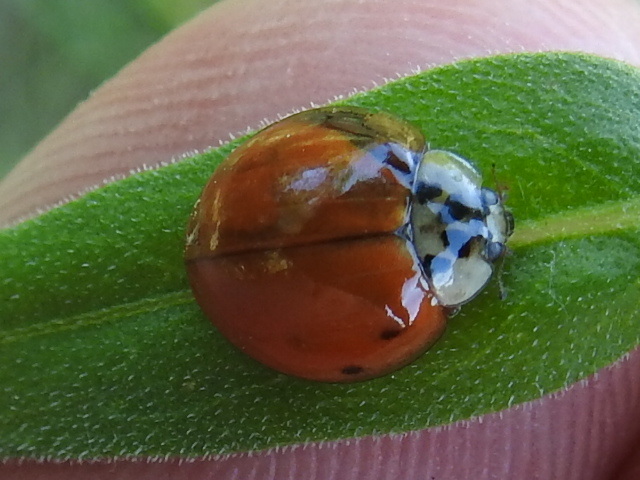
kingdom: Animalia
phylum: Arthropoda
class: Insecta
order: Coleoptera
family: Coccinellidae
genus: Harmonia
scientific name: Harmonia axyridis
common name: Harlequin ladybird
